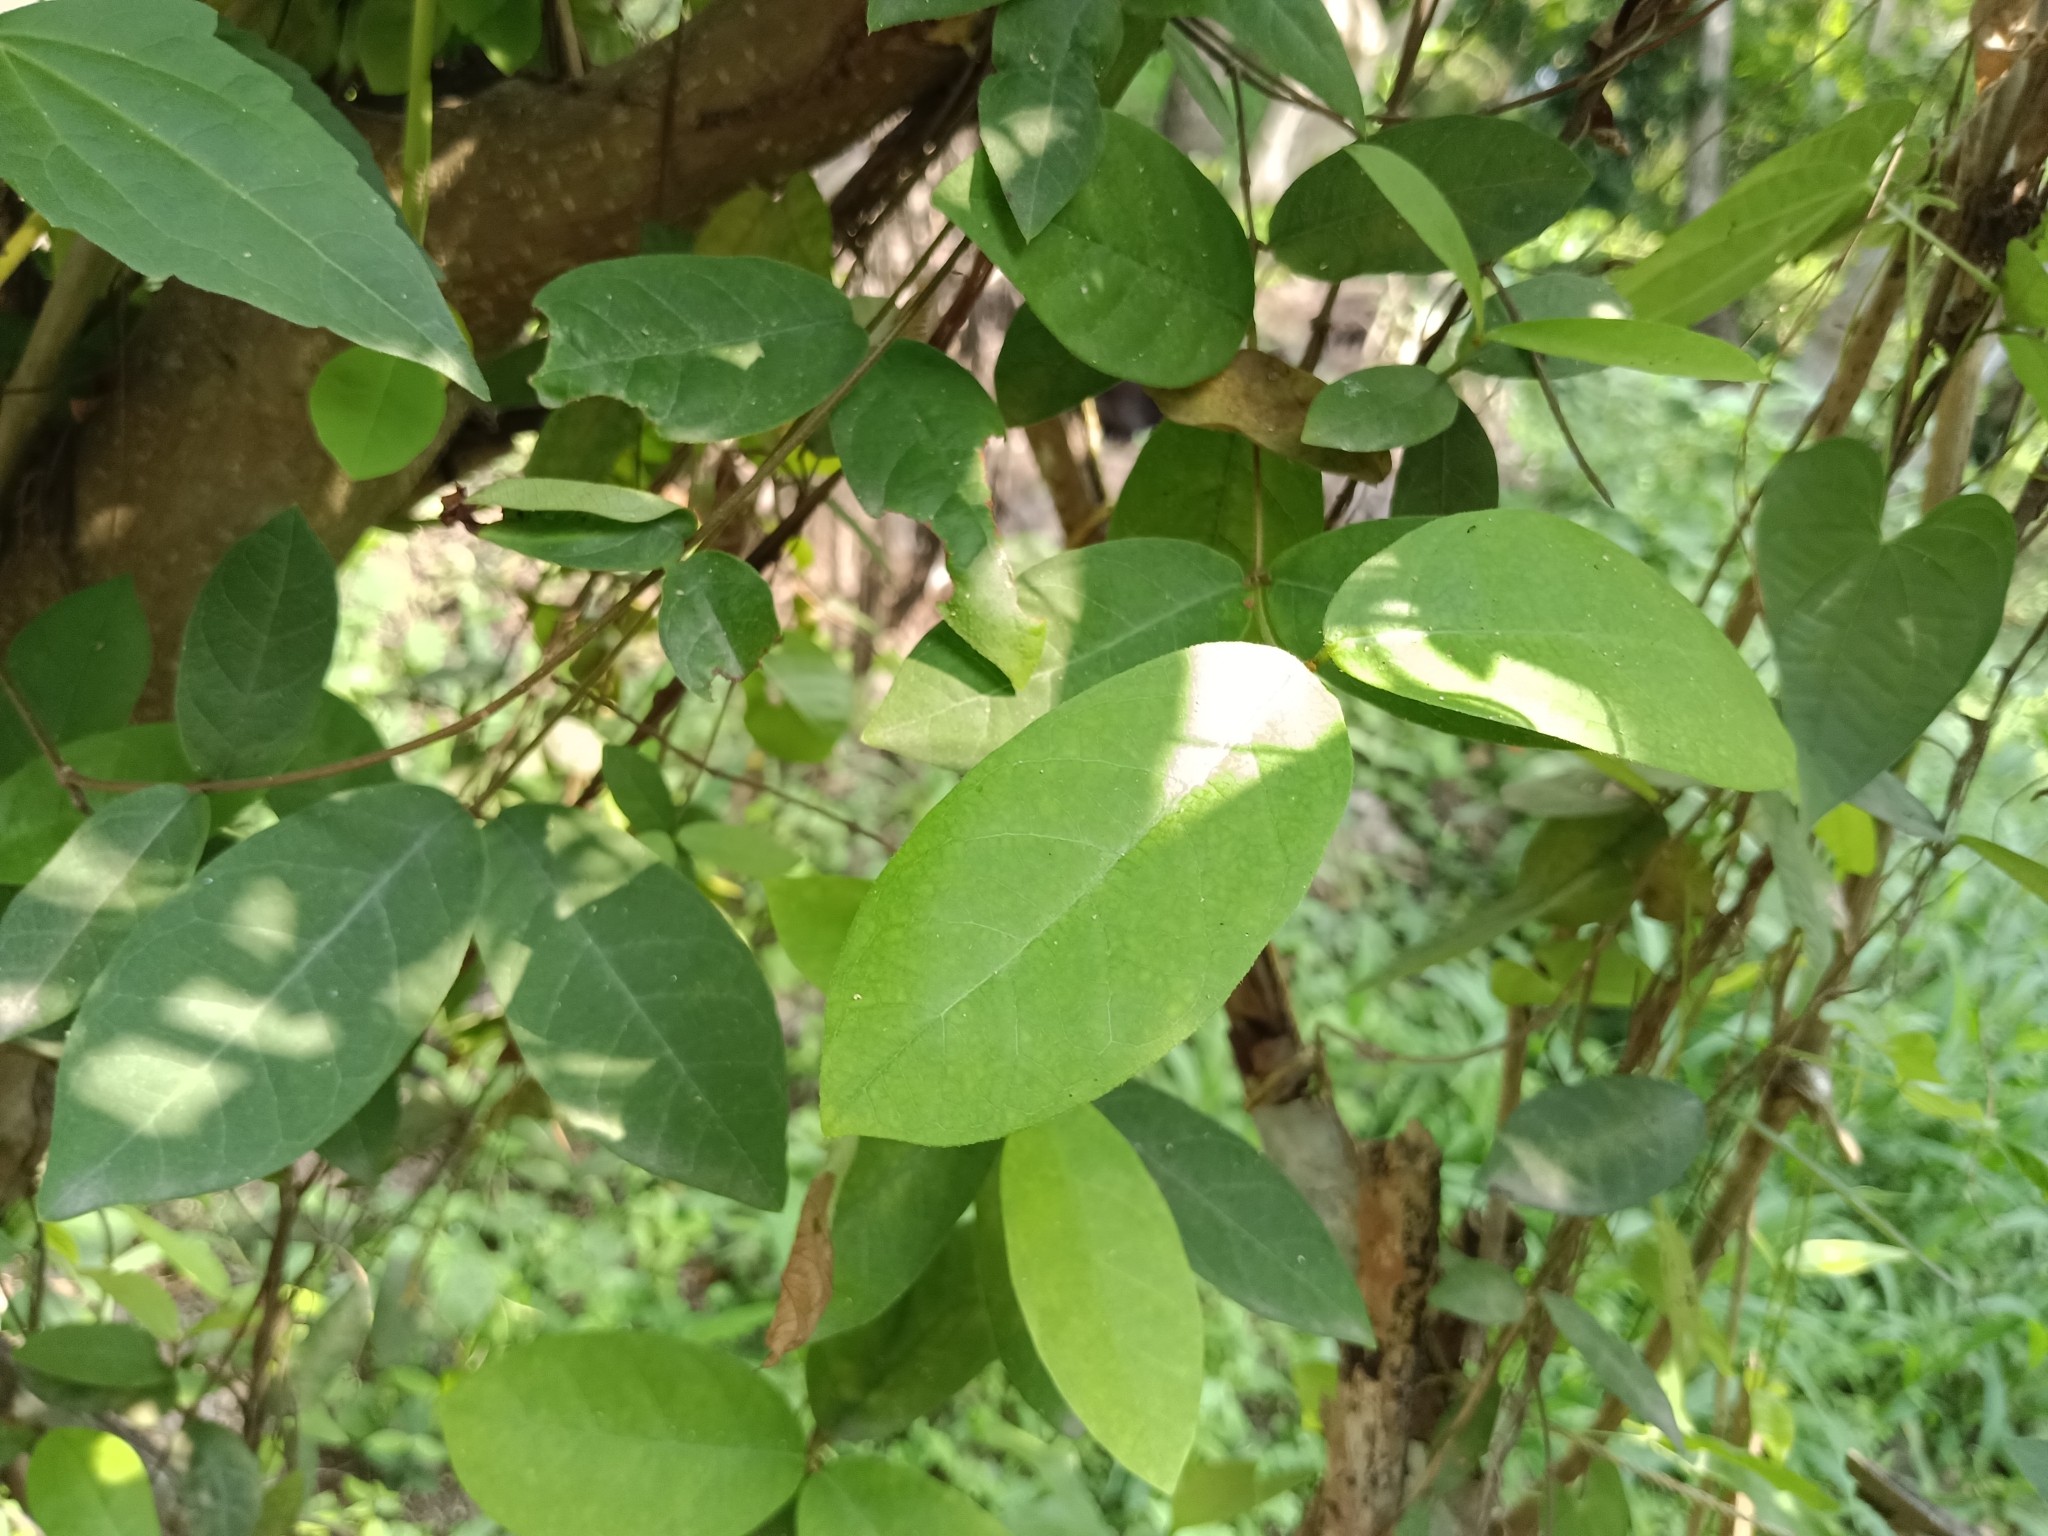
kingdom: Plantae
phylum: Tracheophyta
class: Magnoliopsida
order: Gentianales
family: Apocynaceae
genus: Ichnocarpus
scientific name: Ichnocarpus frutescens
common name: Ichnocarpus
